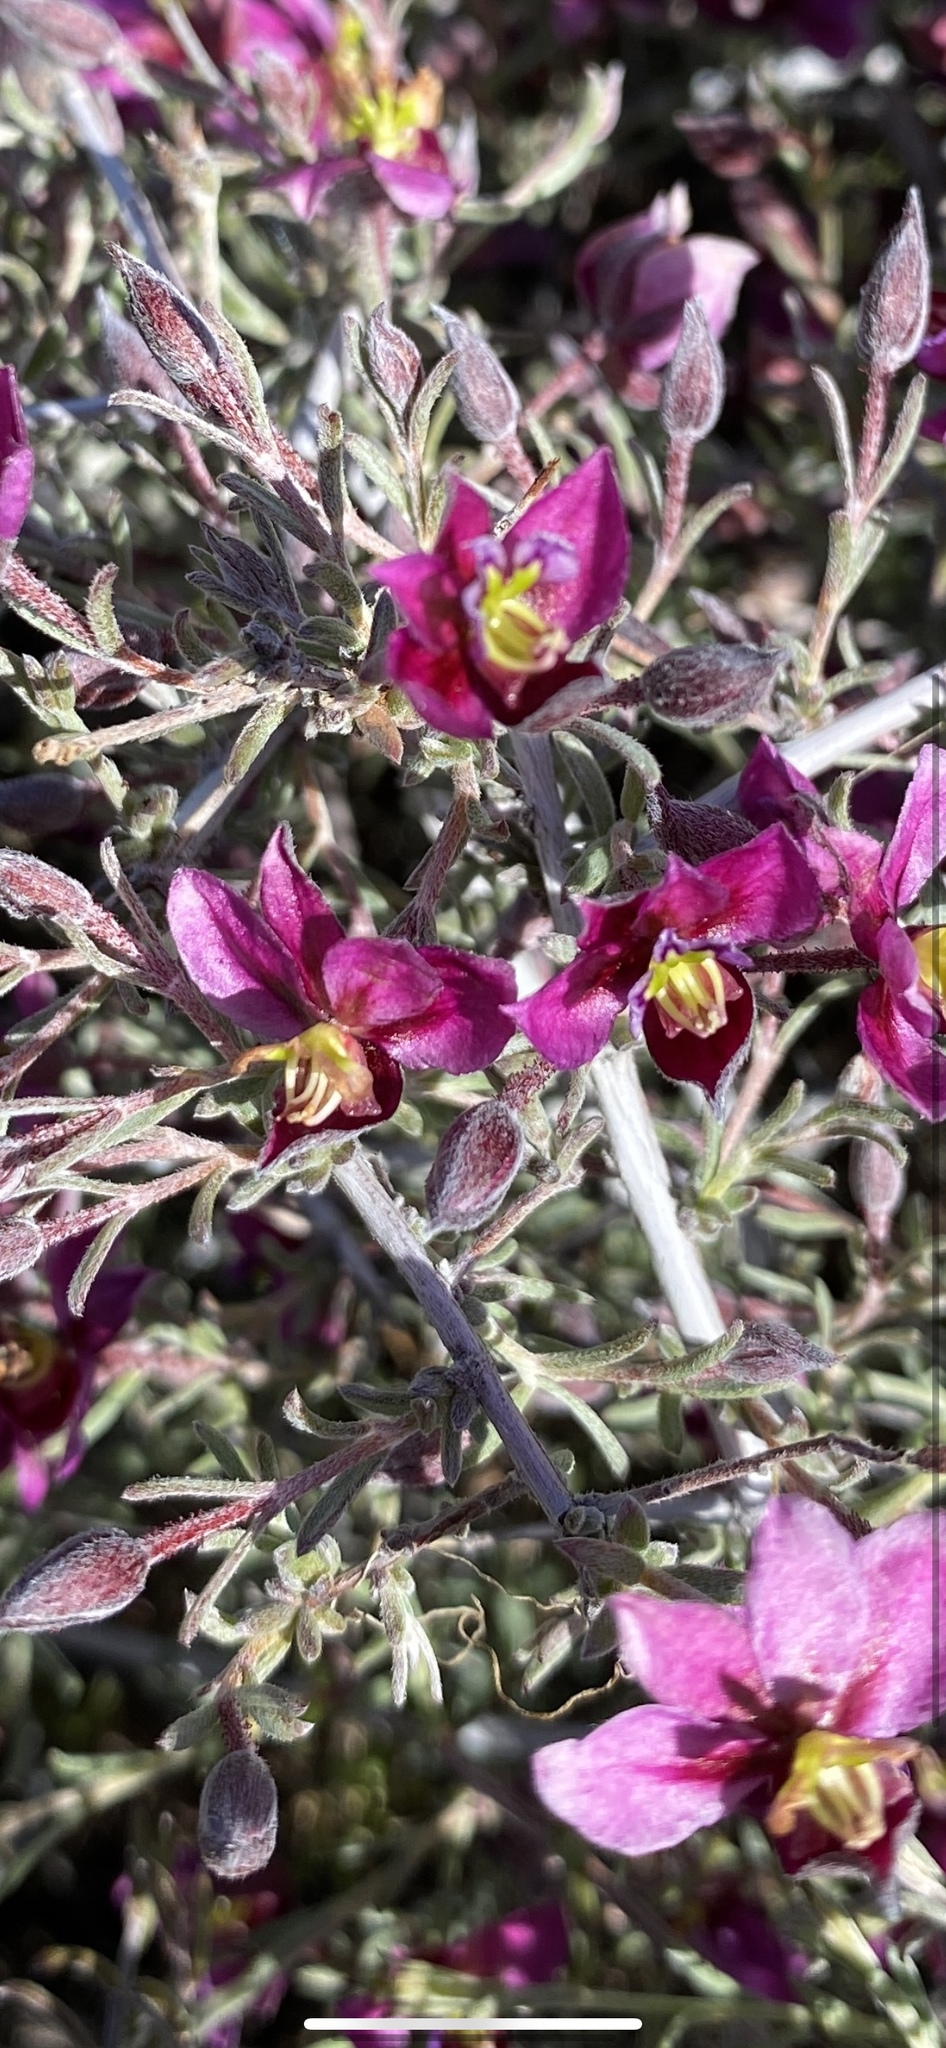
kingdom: Plantae
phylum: Tracheophyta
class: Magnoliopsida
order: Zygophyllales
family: Krameriaceae
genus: Krameria
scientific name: Krameria erecta
